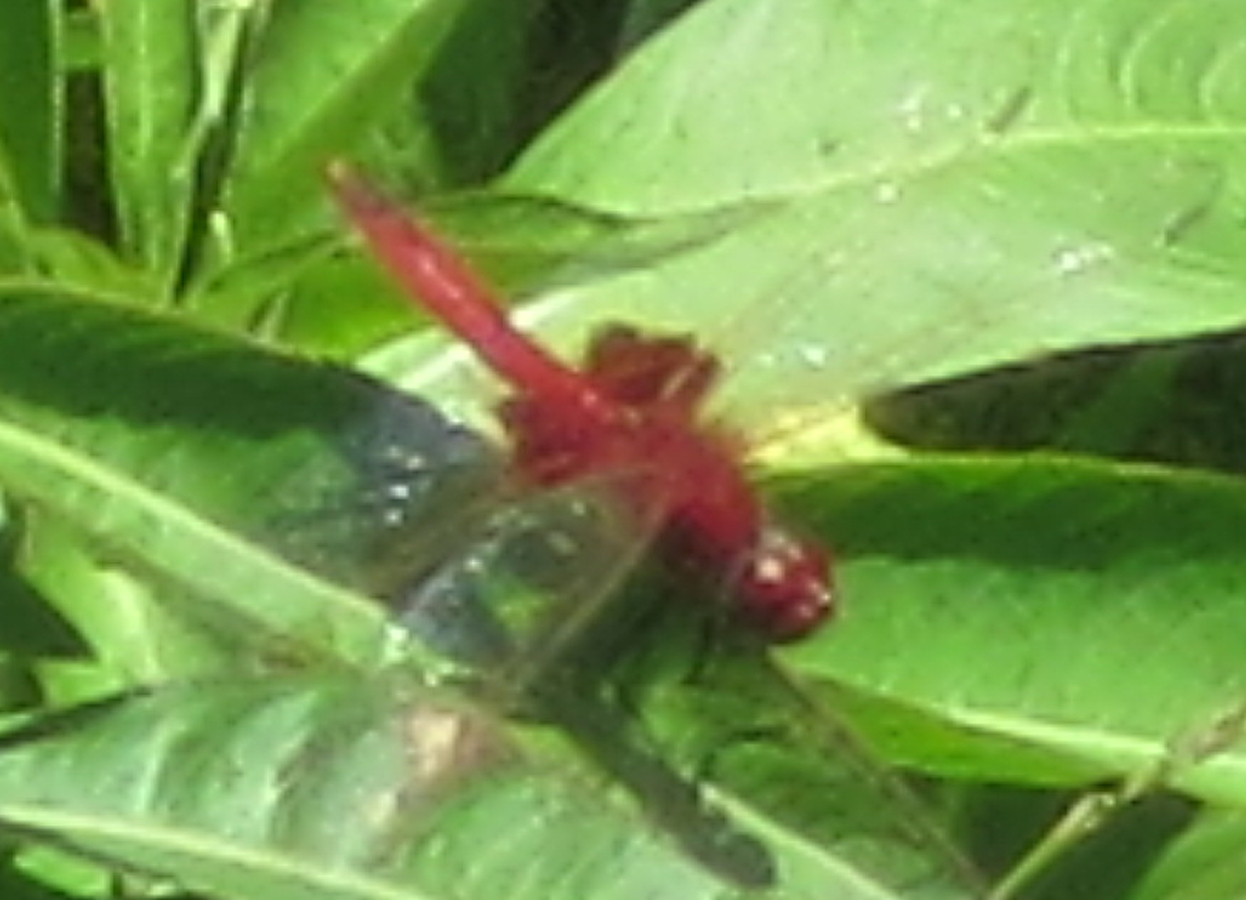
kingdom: Animalia
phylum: Arthropoda
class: Insecta
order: Odonata
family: Libellulidae
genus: Urothemis
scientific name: Urothemis assignata
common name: Red basker
